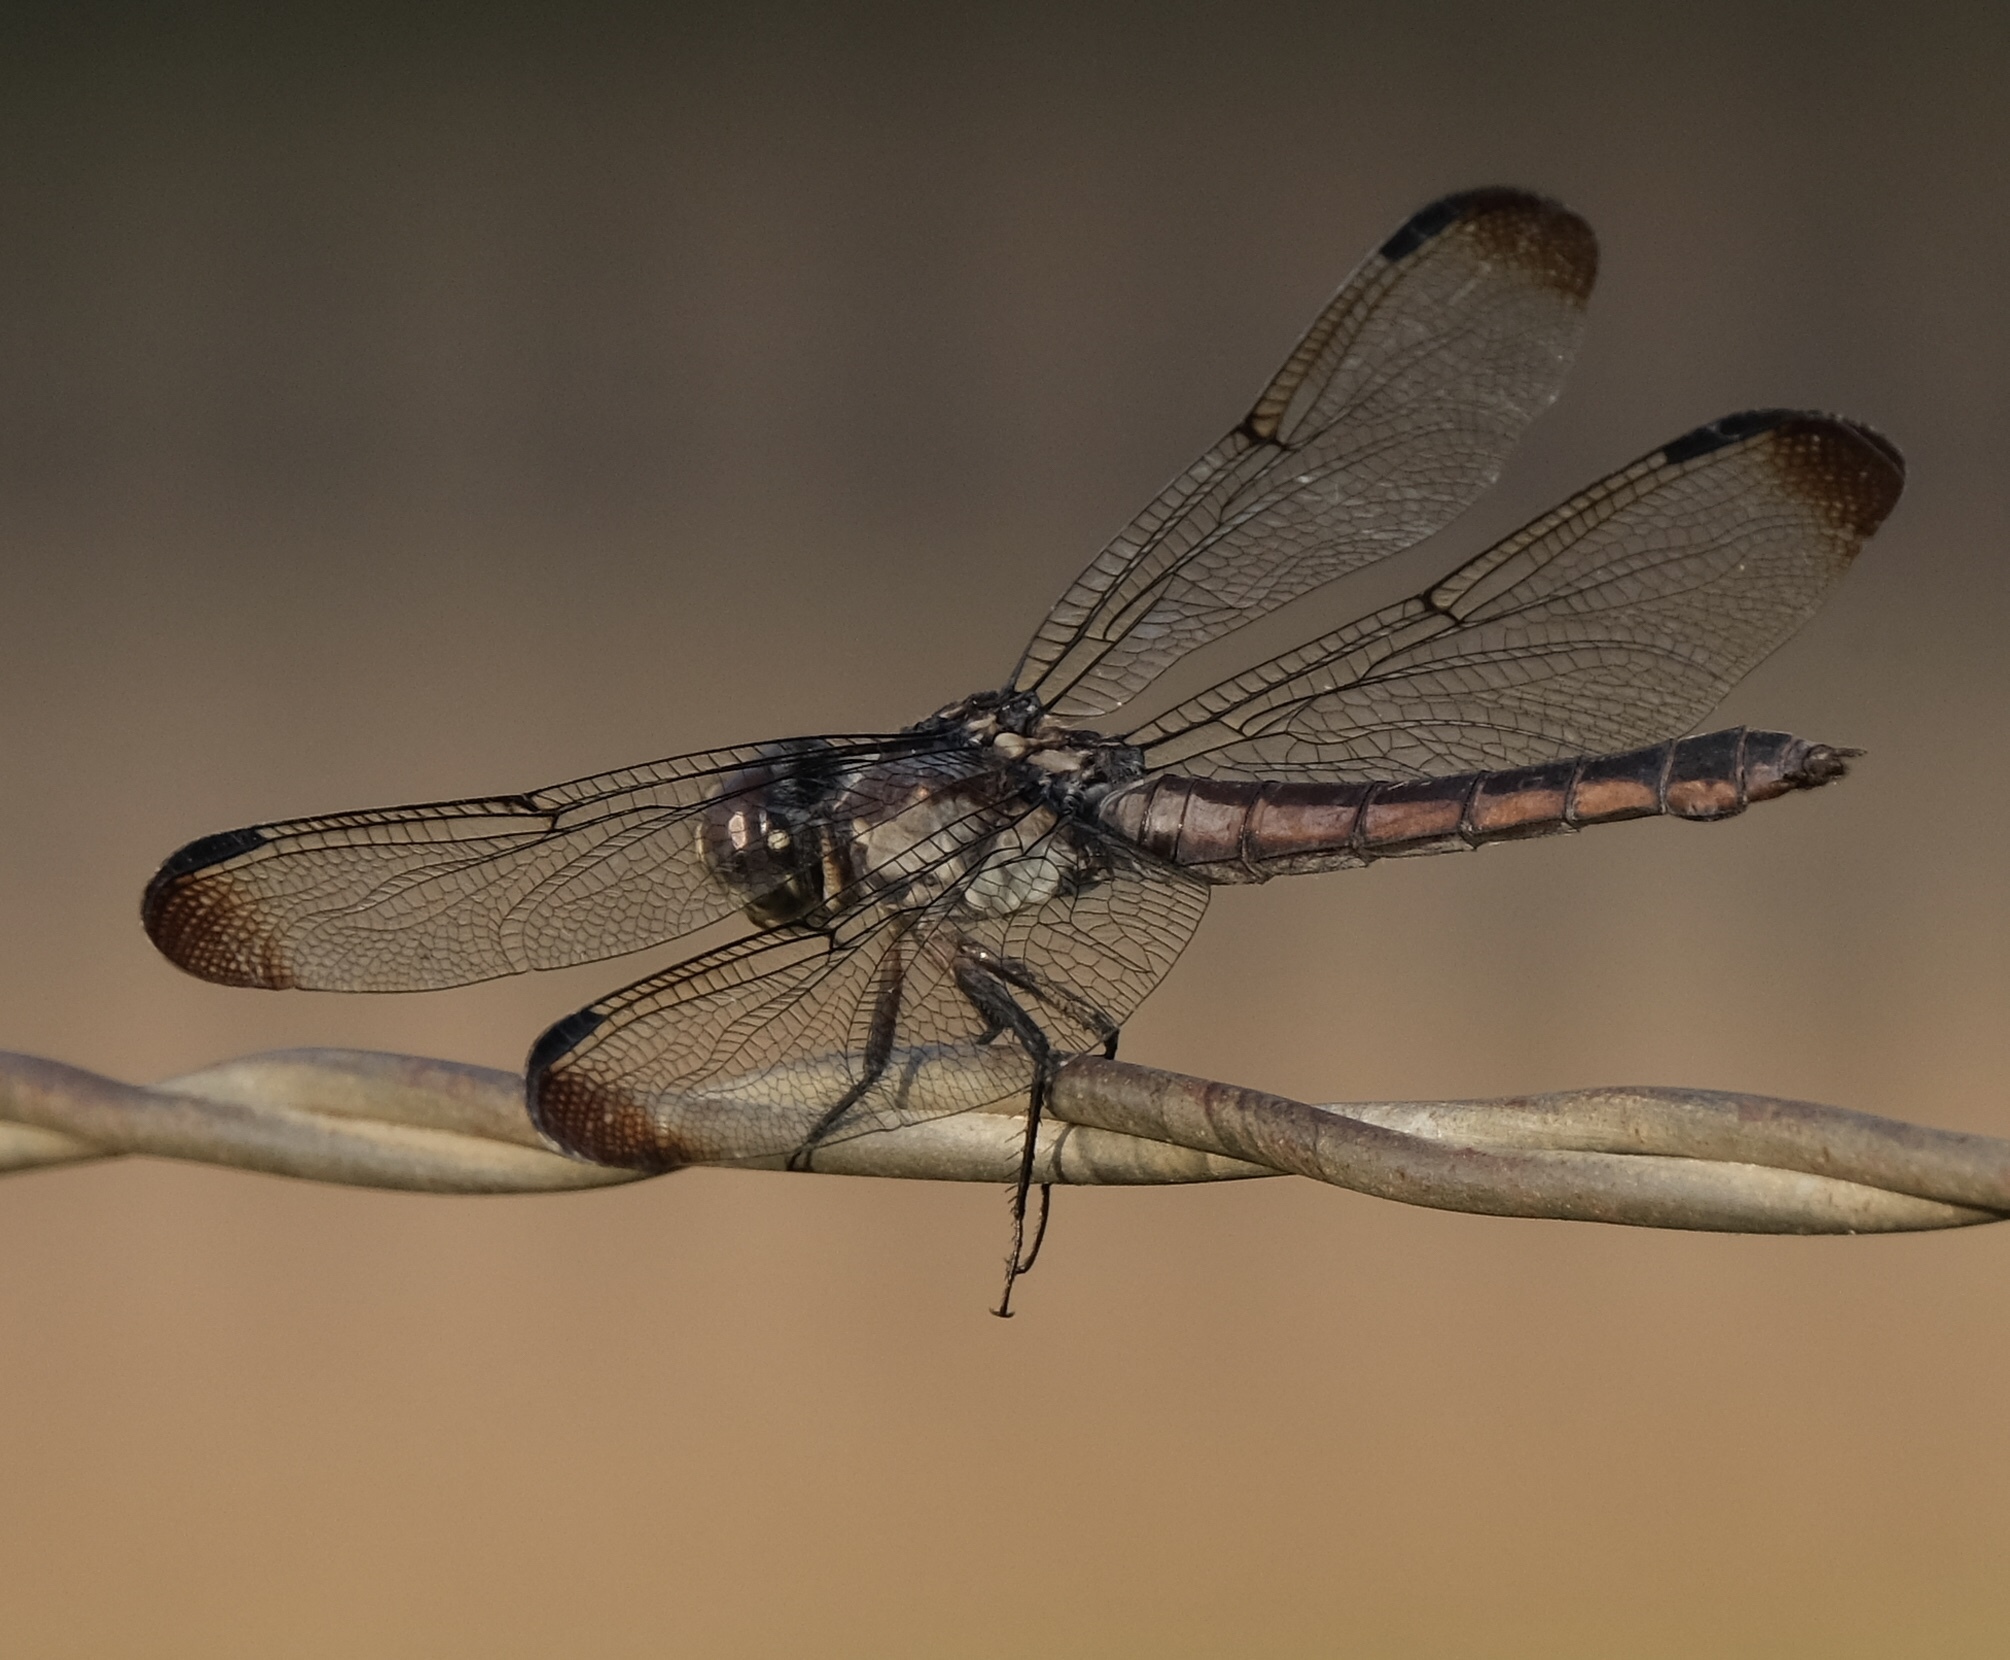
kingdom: Animalia
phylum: Arthropoda
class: Insecta
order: Odonata
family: Libellulidae
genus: Libellula
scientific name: Libellula incesta
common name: Slaty skimmer
